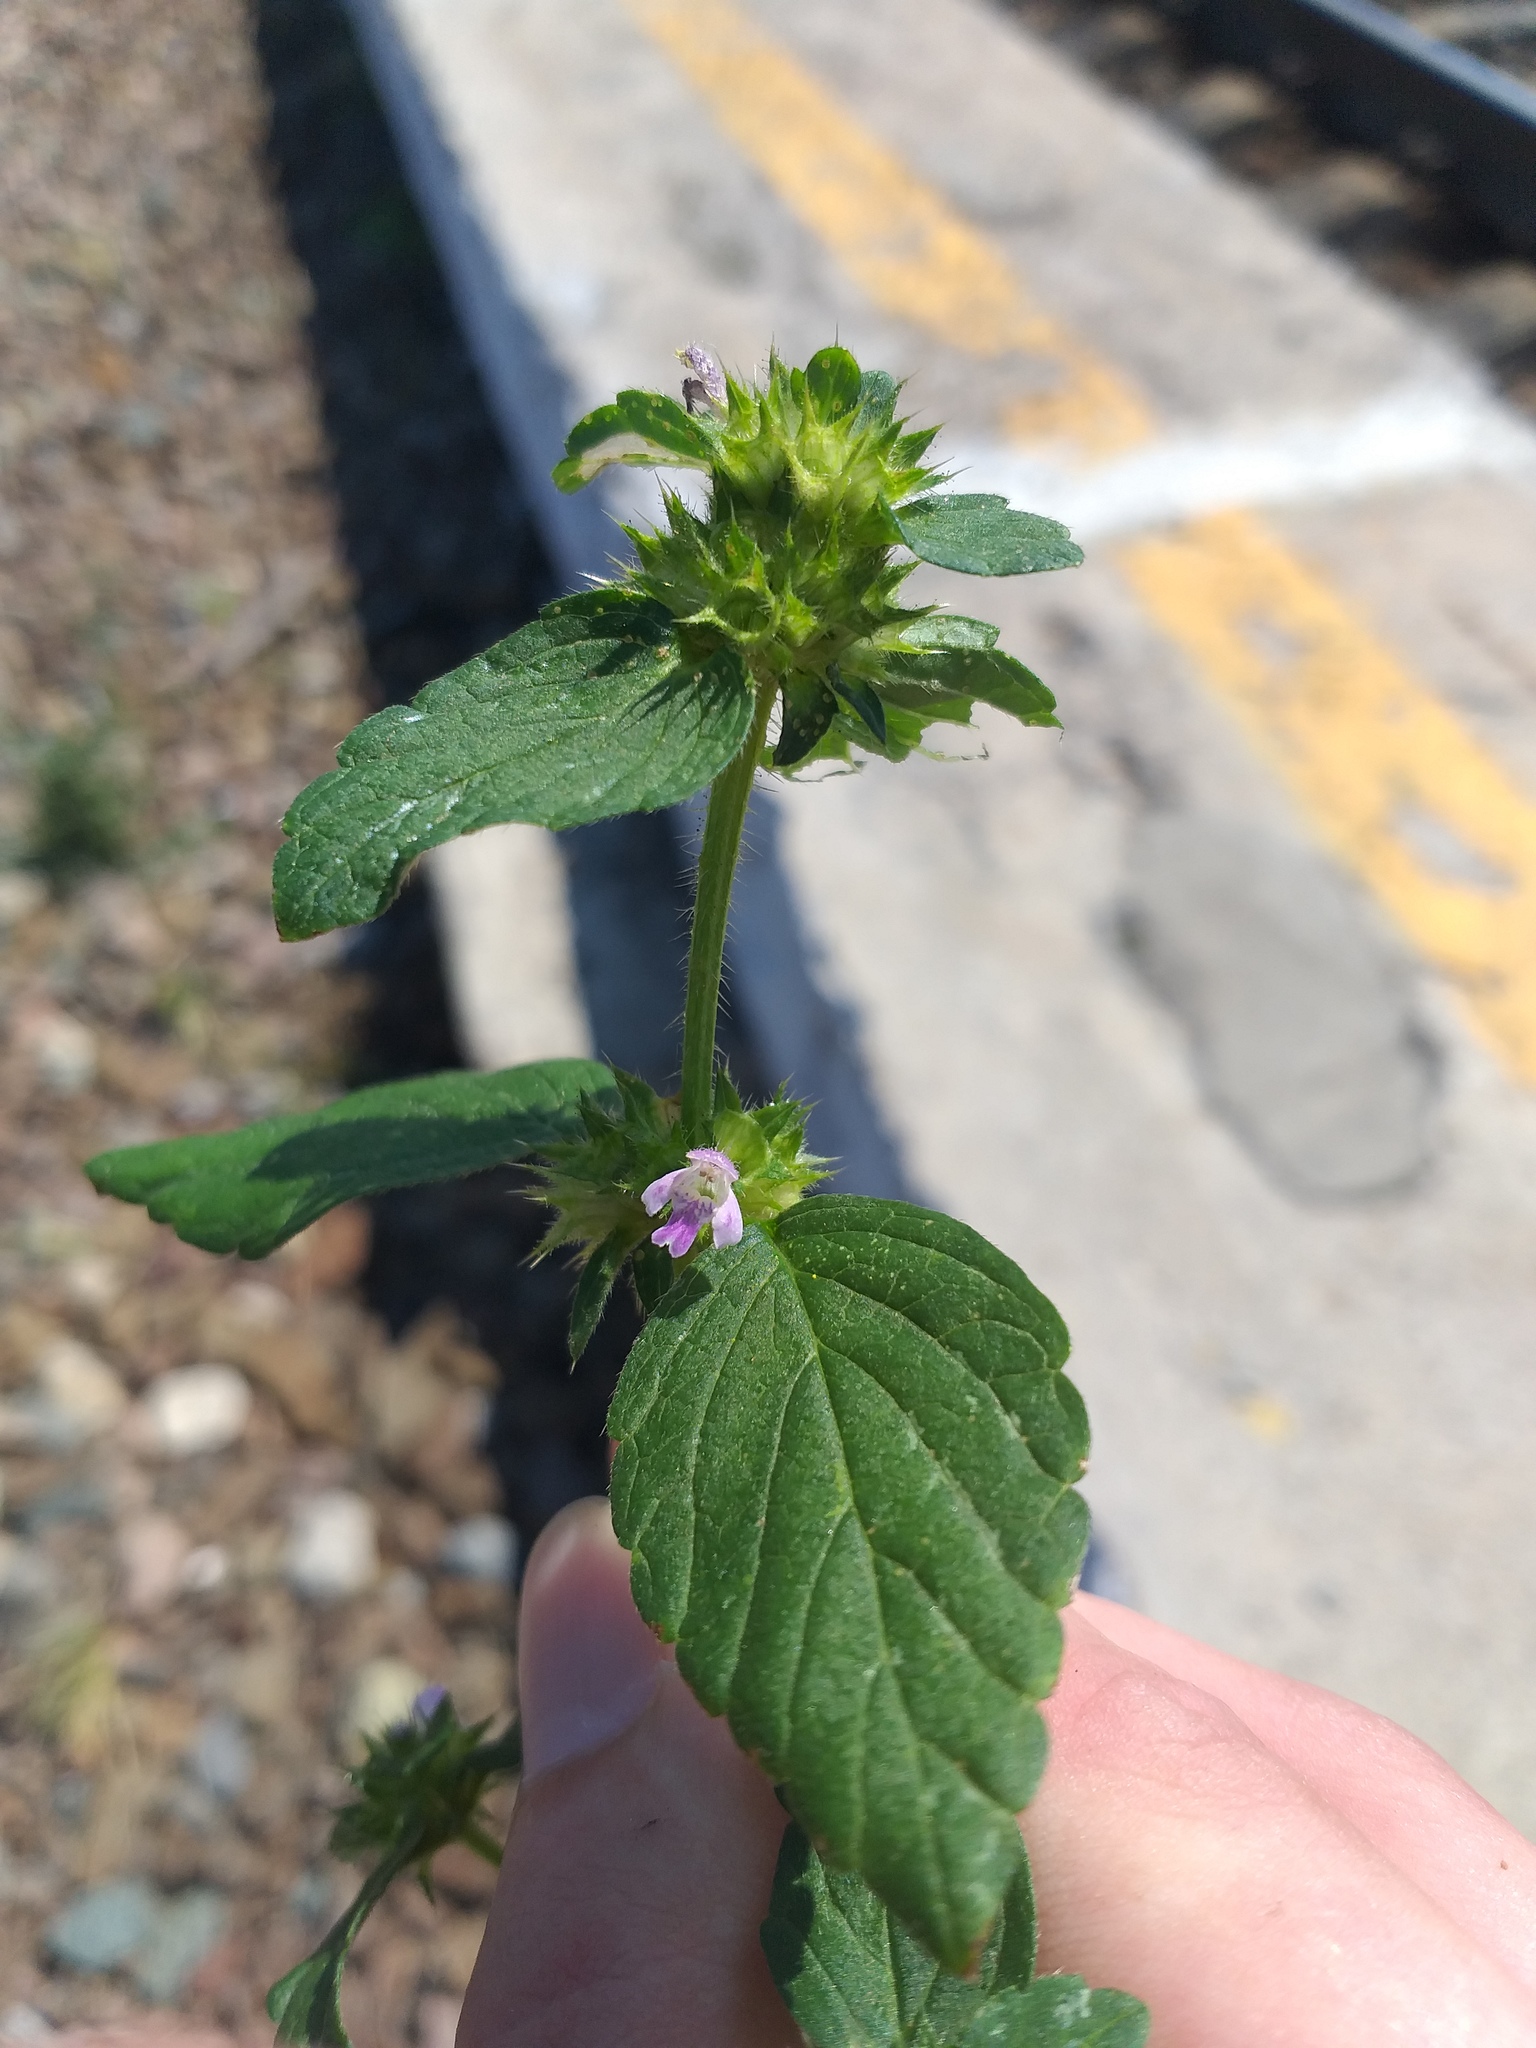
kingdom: Plantae
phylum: Tracheophyta
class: Magnoliopsida
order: Lamiales
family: Lamiaceae
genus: Galeopsis
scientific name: Galeopsis bifida
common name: Bifid hemp-nettle
